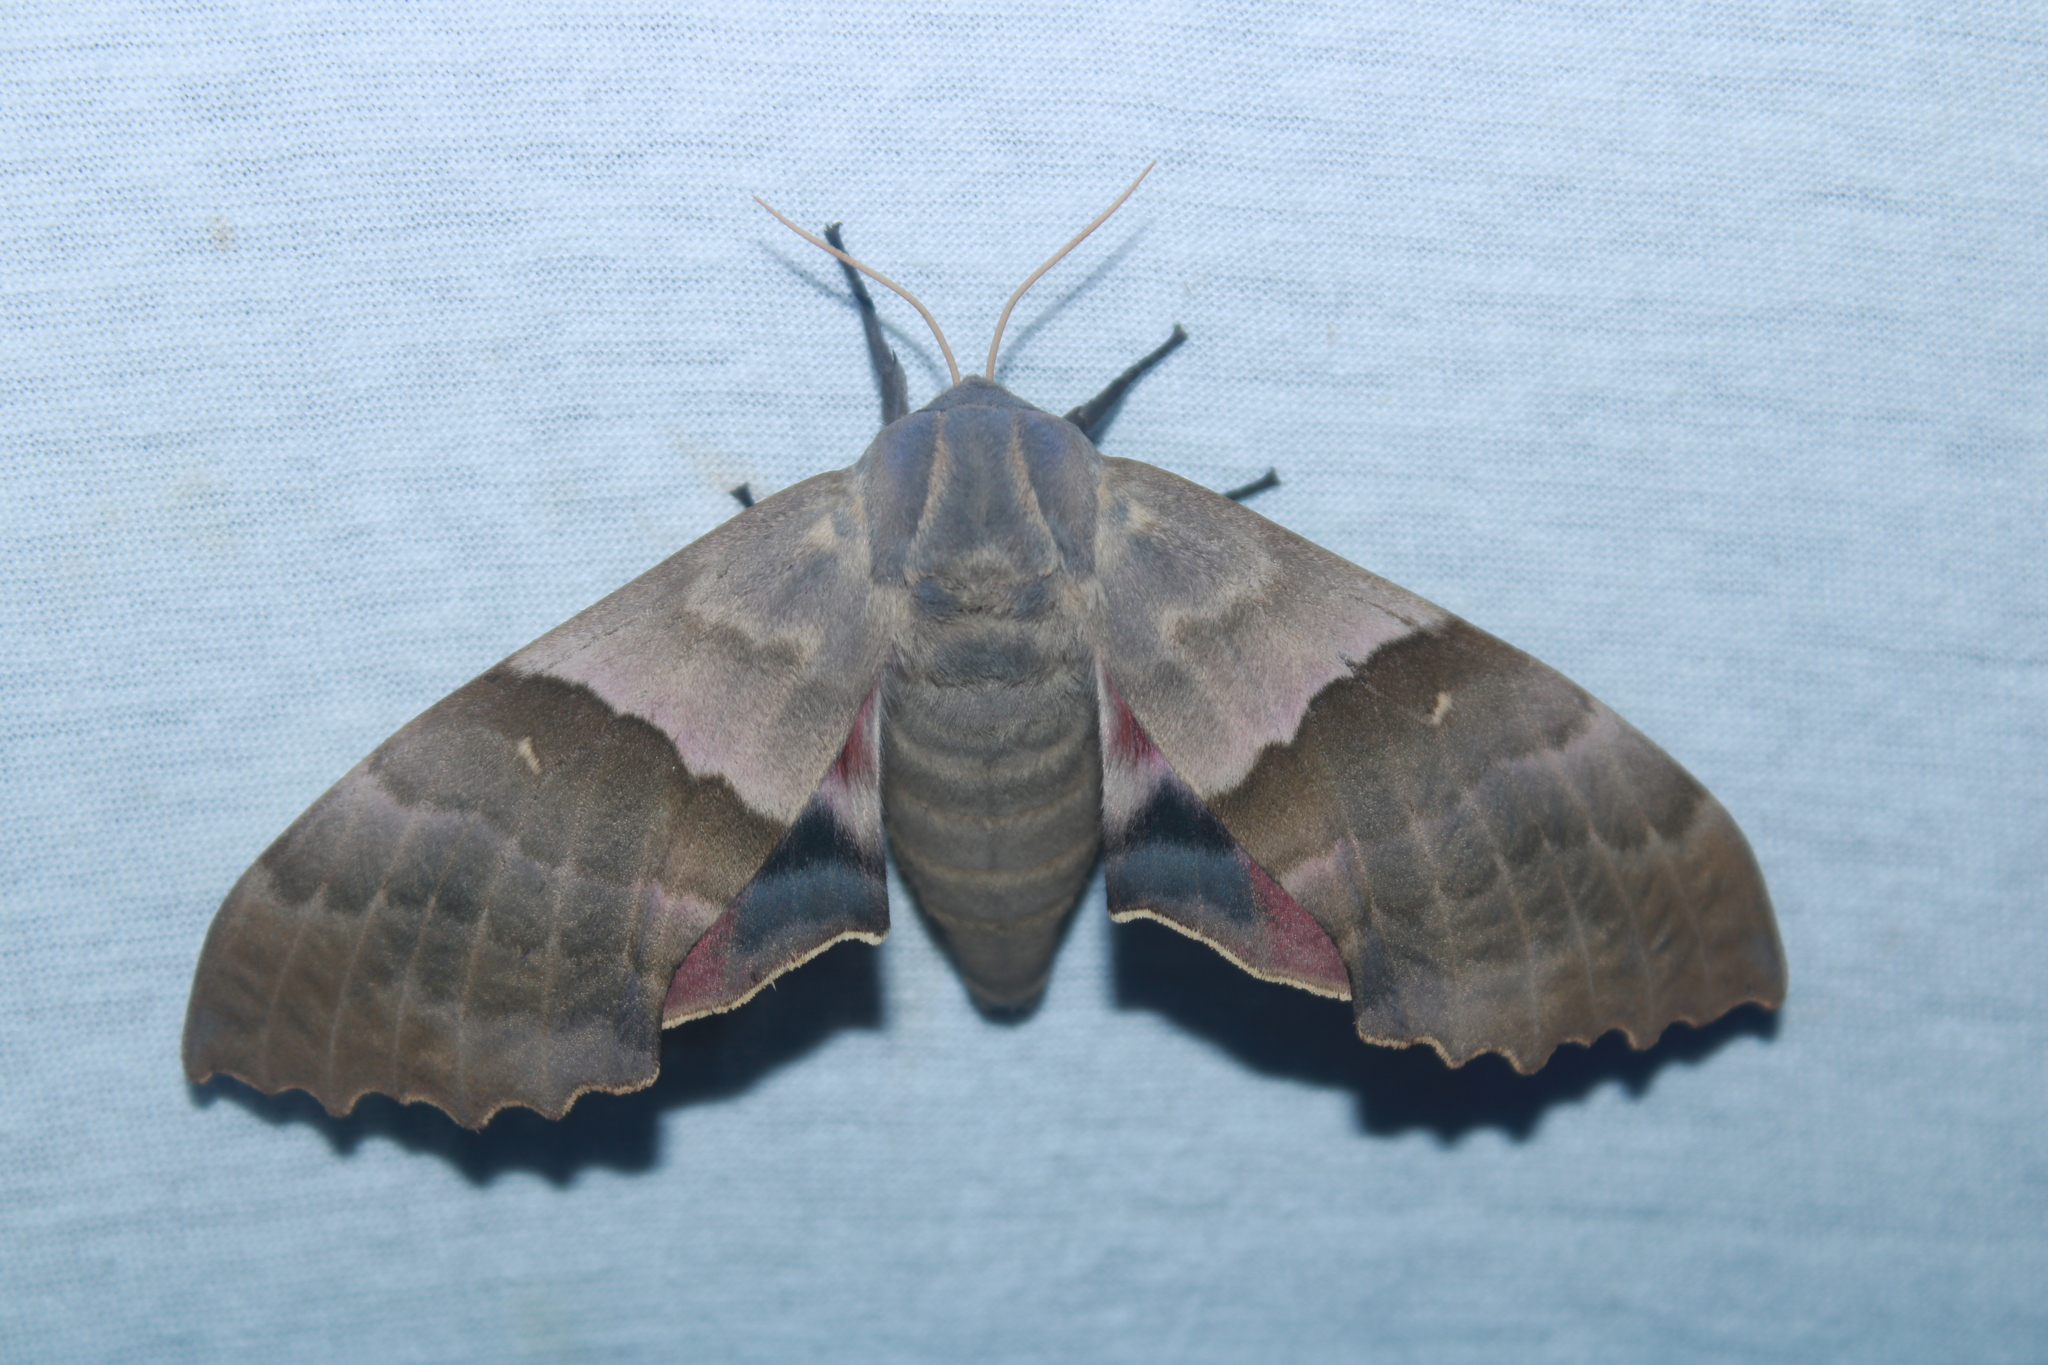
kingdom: Animalia
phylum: Arthropoda
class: Insecta
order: Lepidoptera
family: Sphingidae
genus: Pachysphinx
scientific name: Pachysphinx modesta
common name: Big poplar sphinx
